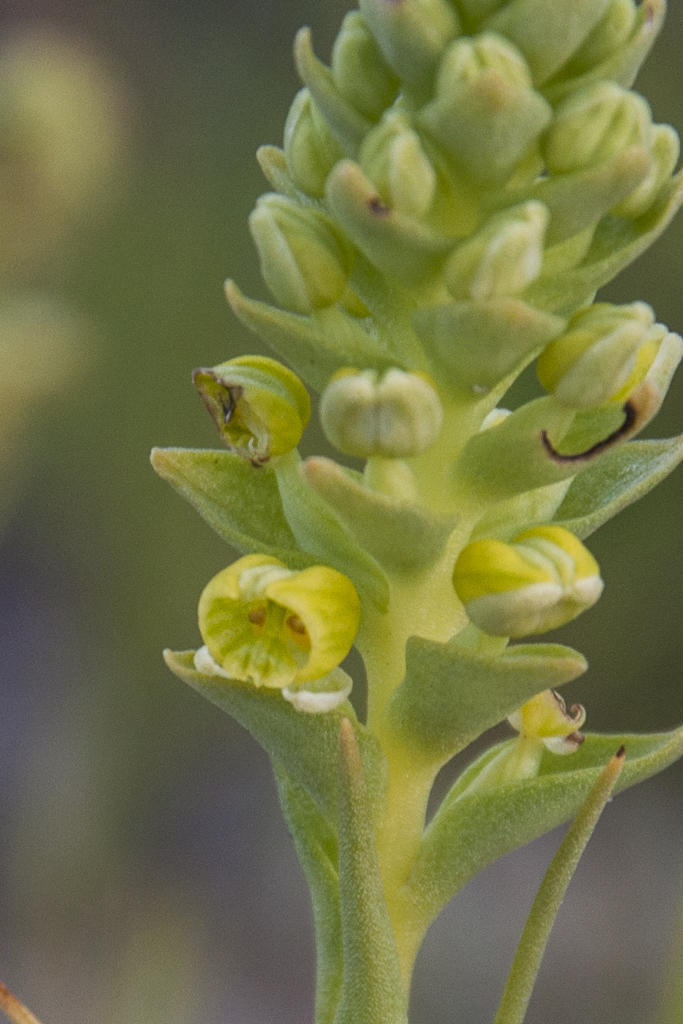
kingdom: Plantae
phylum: Tracheophyta
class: Liliopsida
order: Asparagales
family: Orchidaceae
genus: Corycium
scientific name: Corycium excisum
